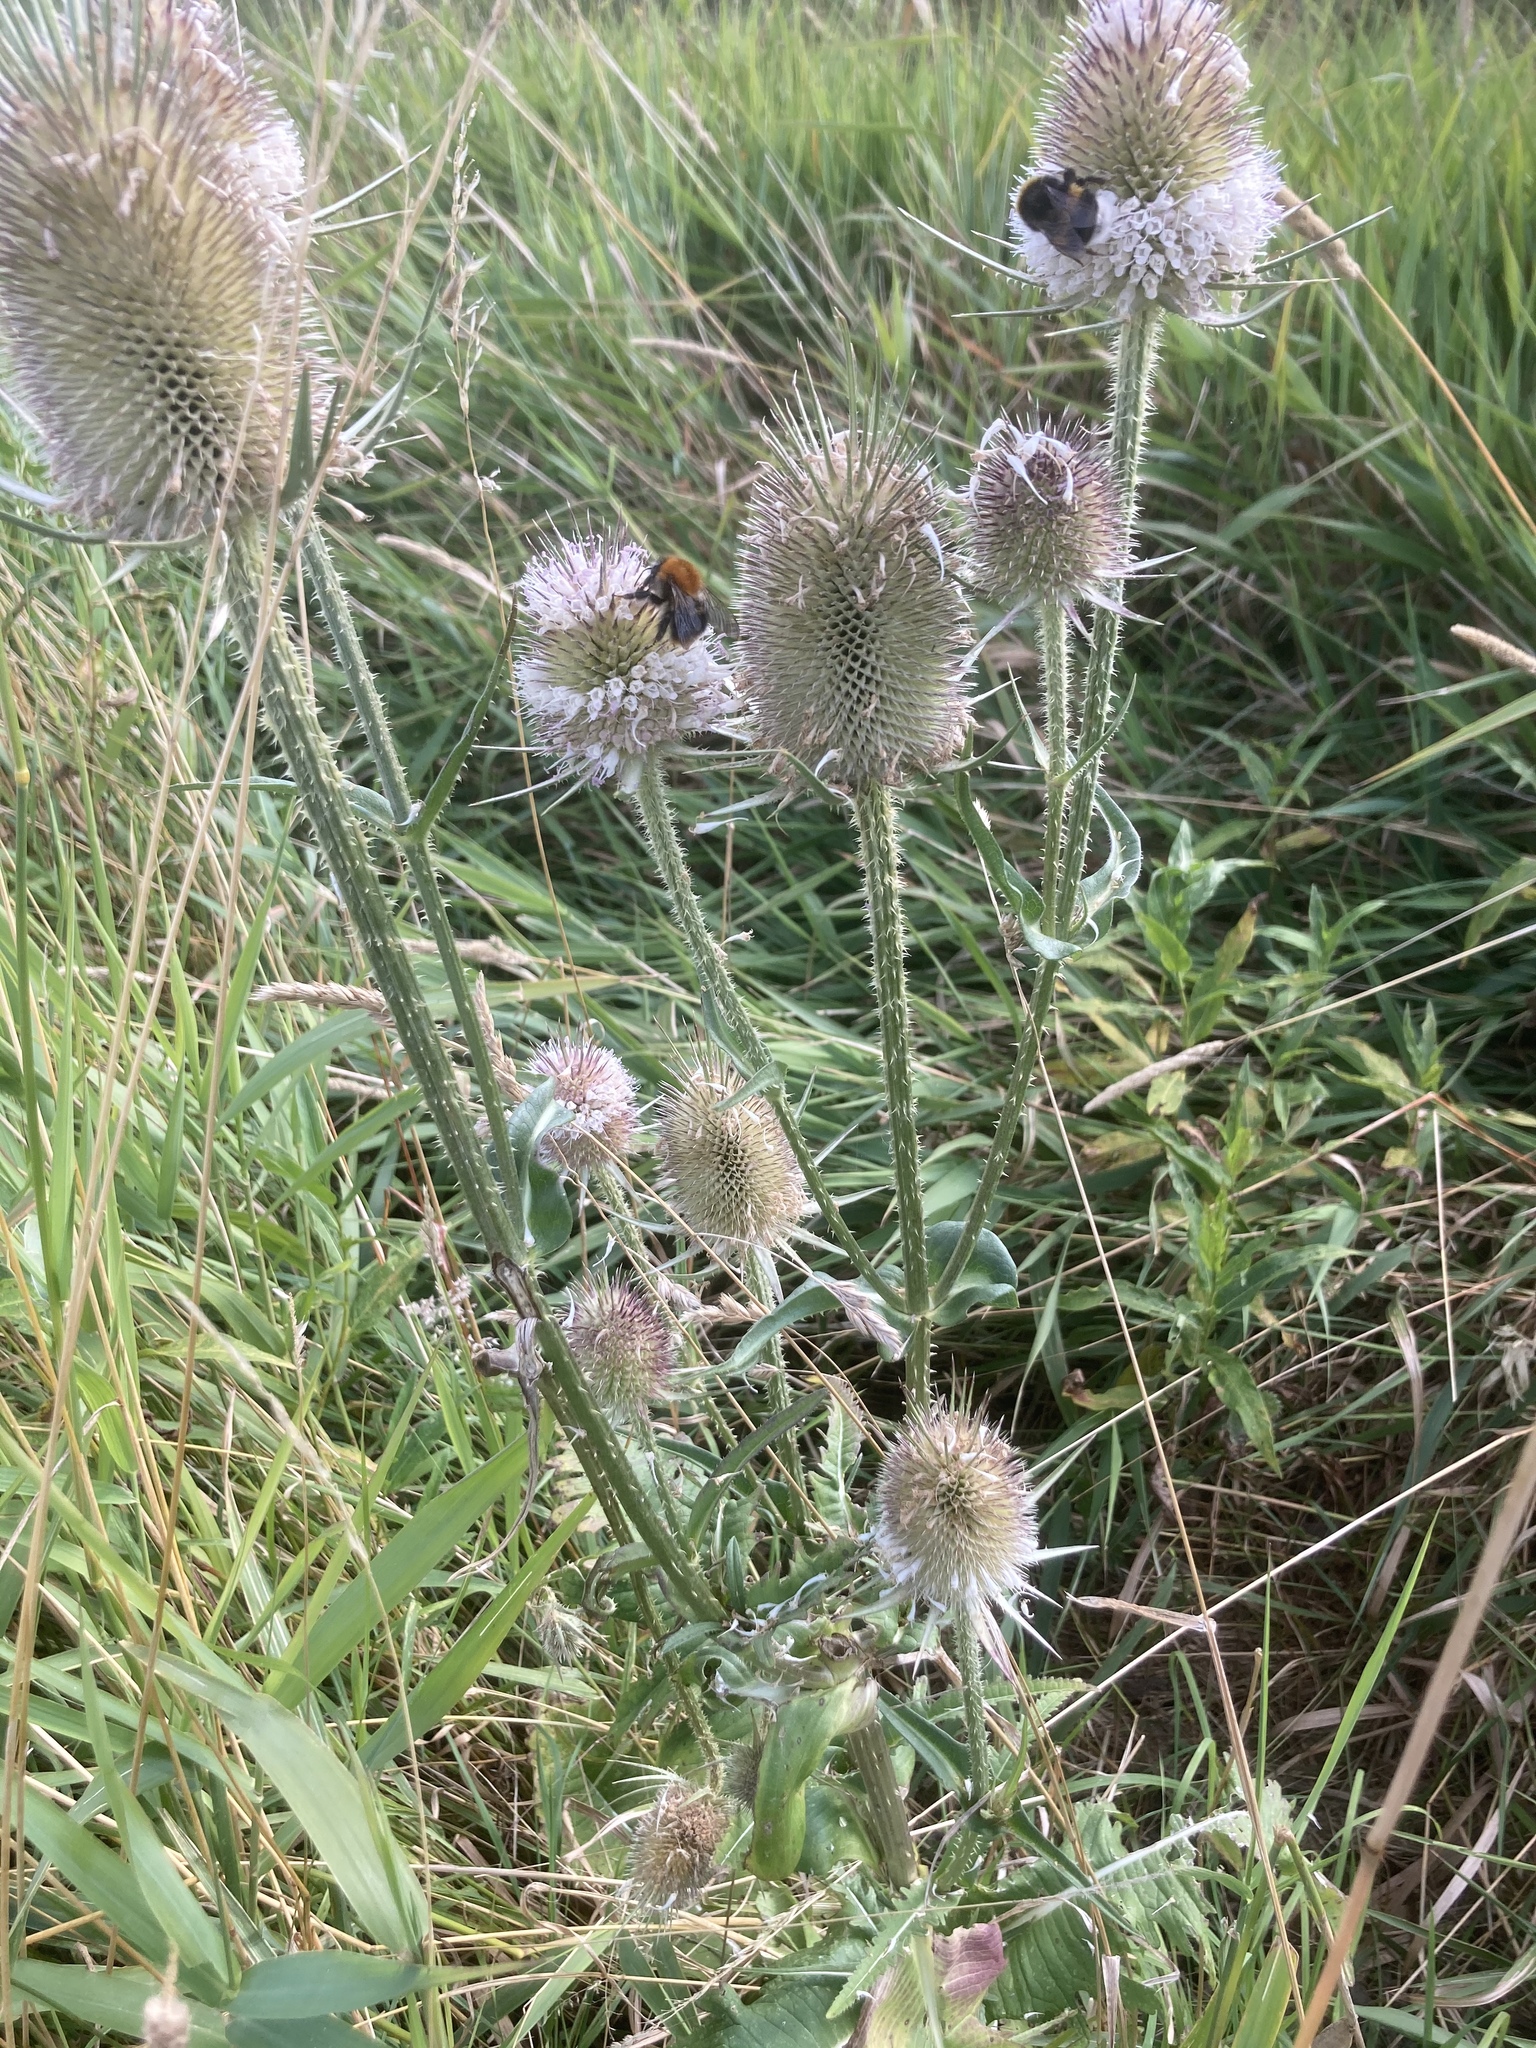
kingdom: Plantae
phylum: Tracheophyta
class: Magnoliopsida
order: Dipsacales
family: Caprifoliaceae
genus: Dipsacus
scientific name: Dipsacus laciniatus
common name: Cut-leaved teasel
